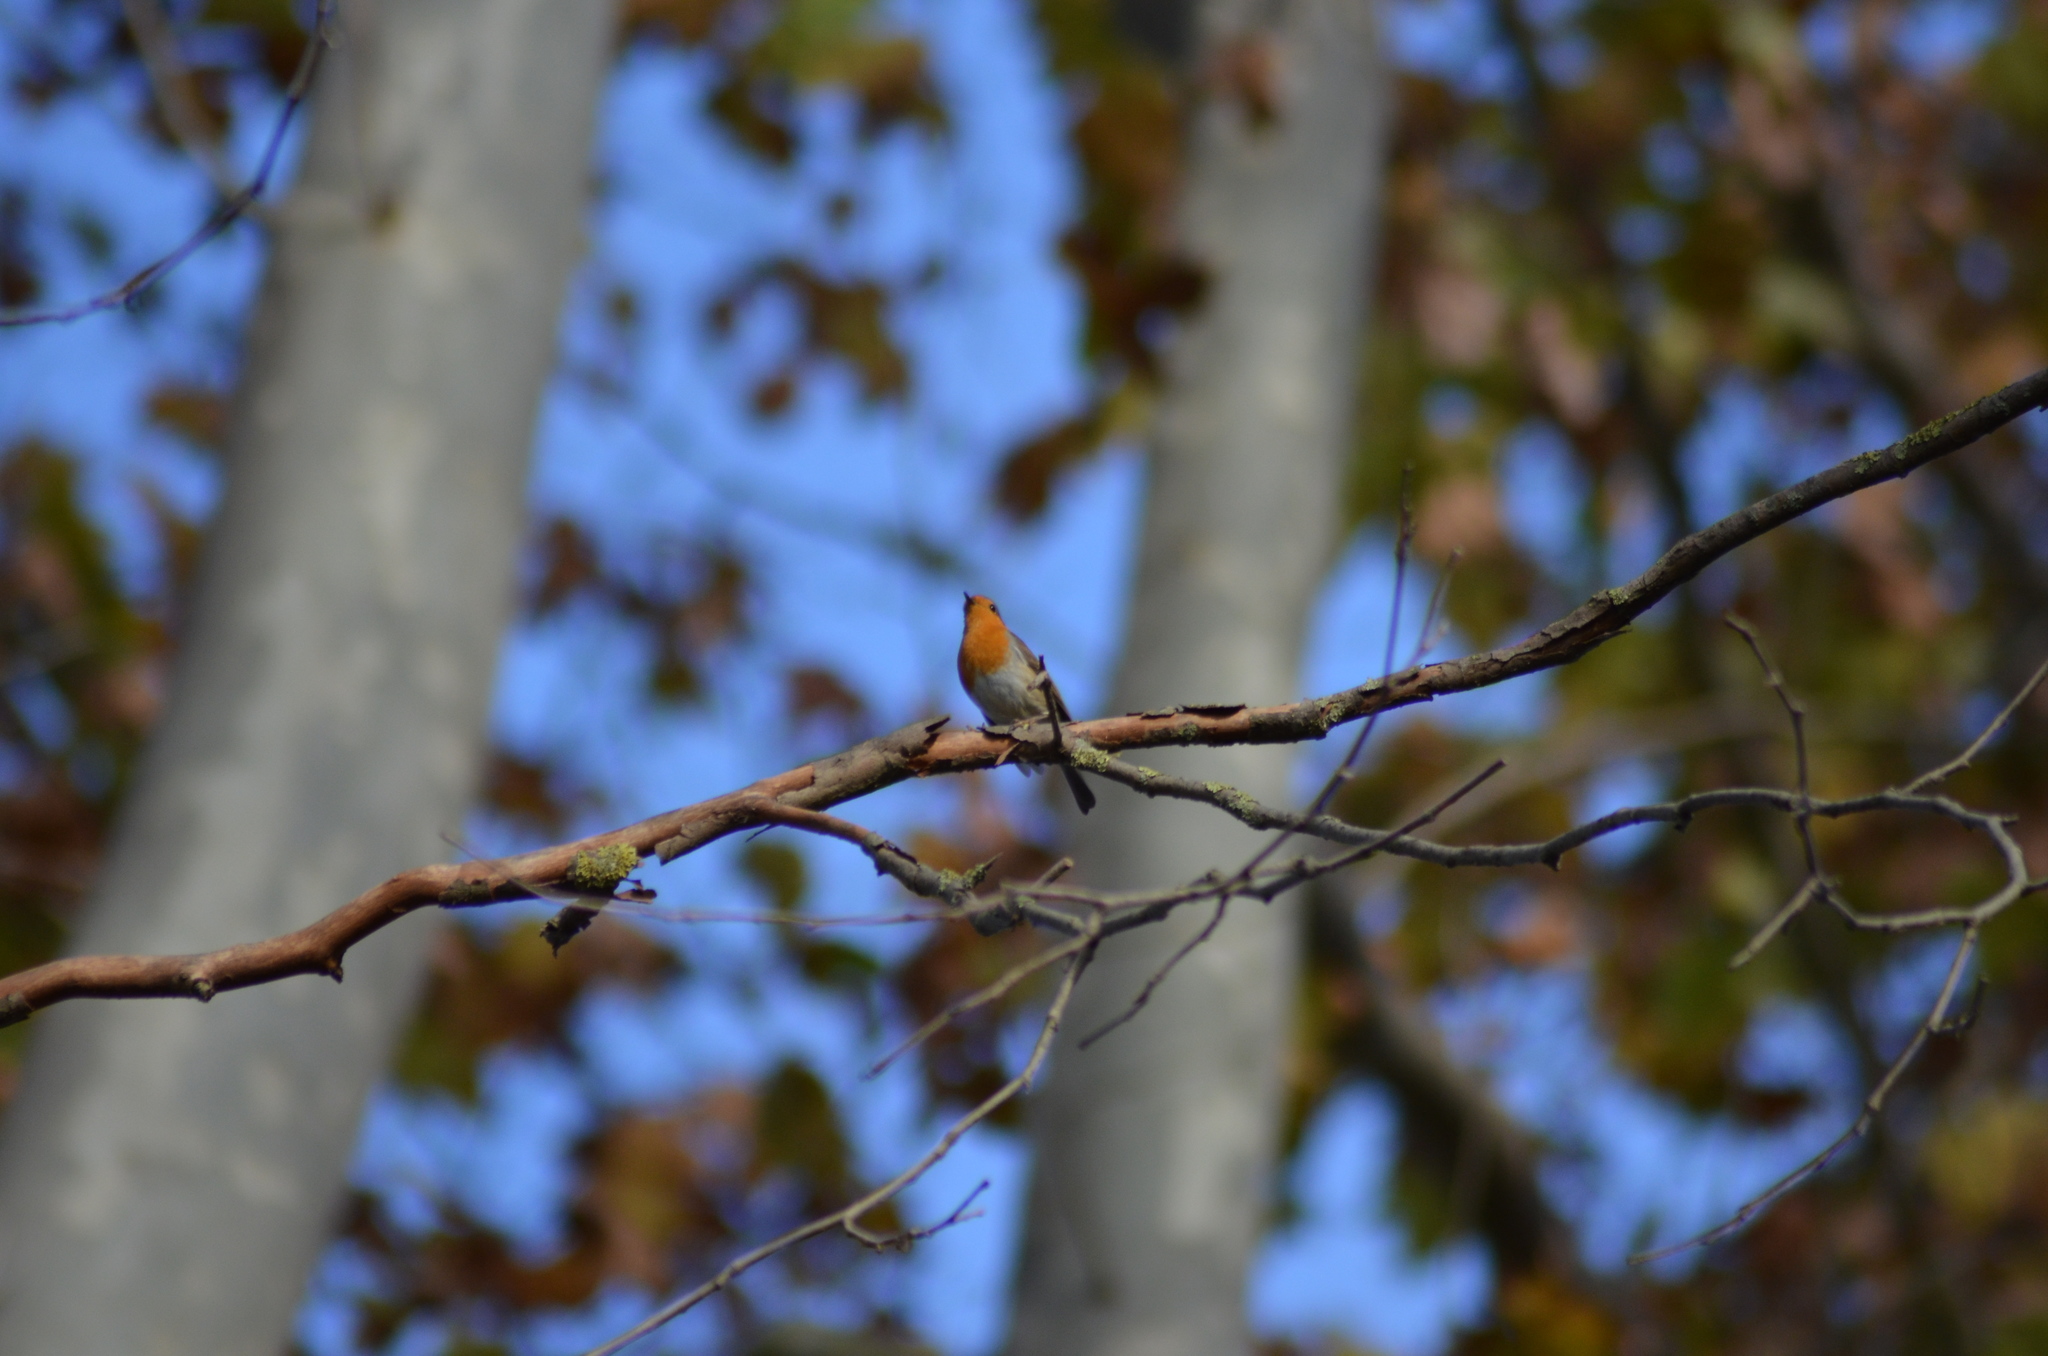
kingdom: Animalia
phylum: Chordata
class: Aves
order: Passeriformes
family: Muscicapidae
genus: Erithacus
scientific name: Erithacus rubecula
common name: European robin
